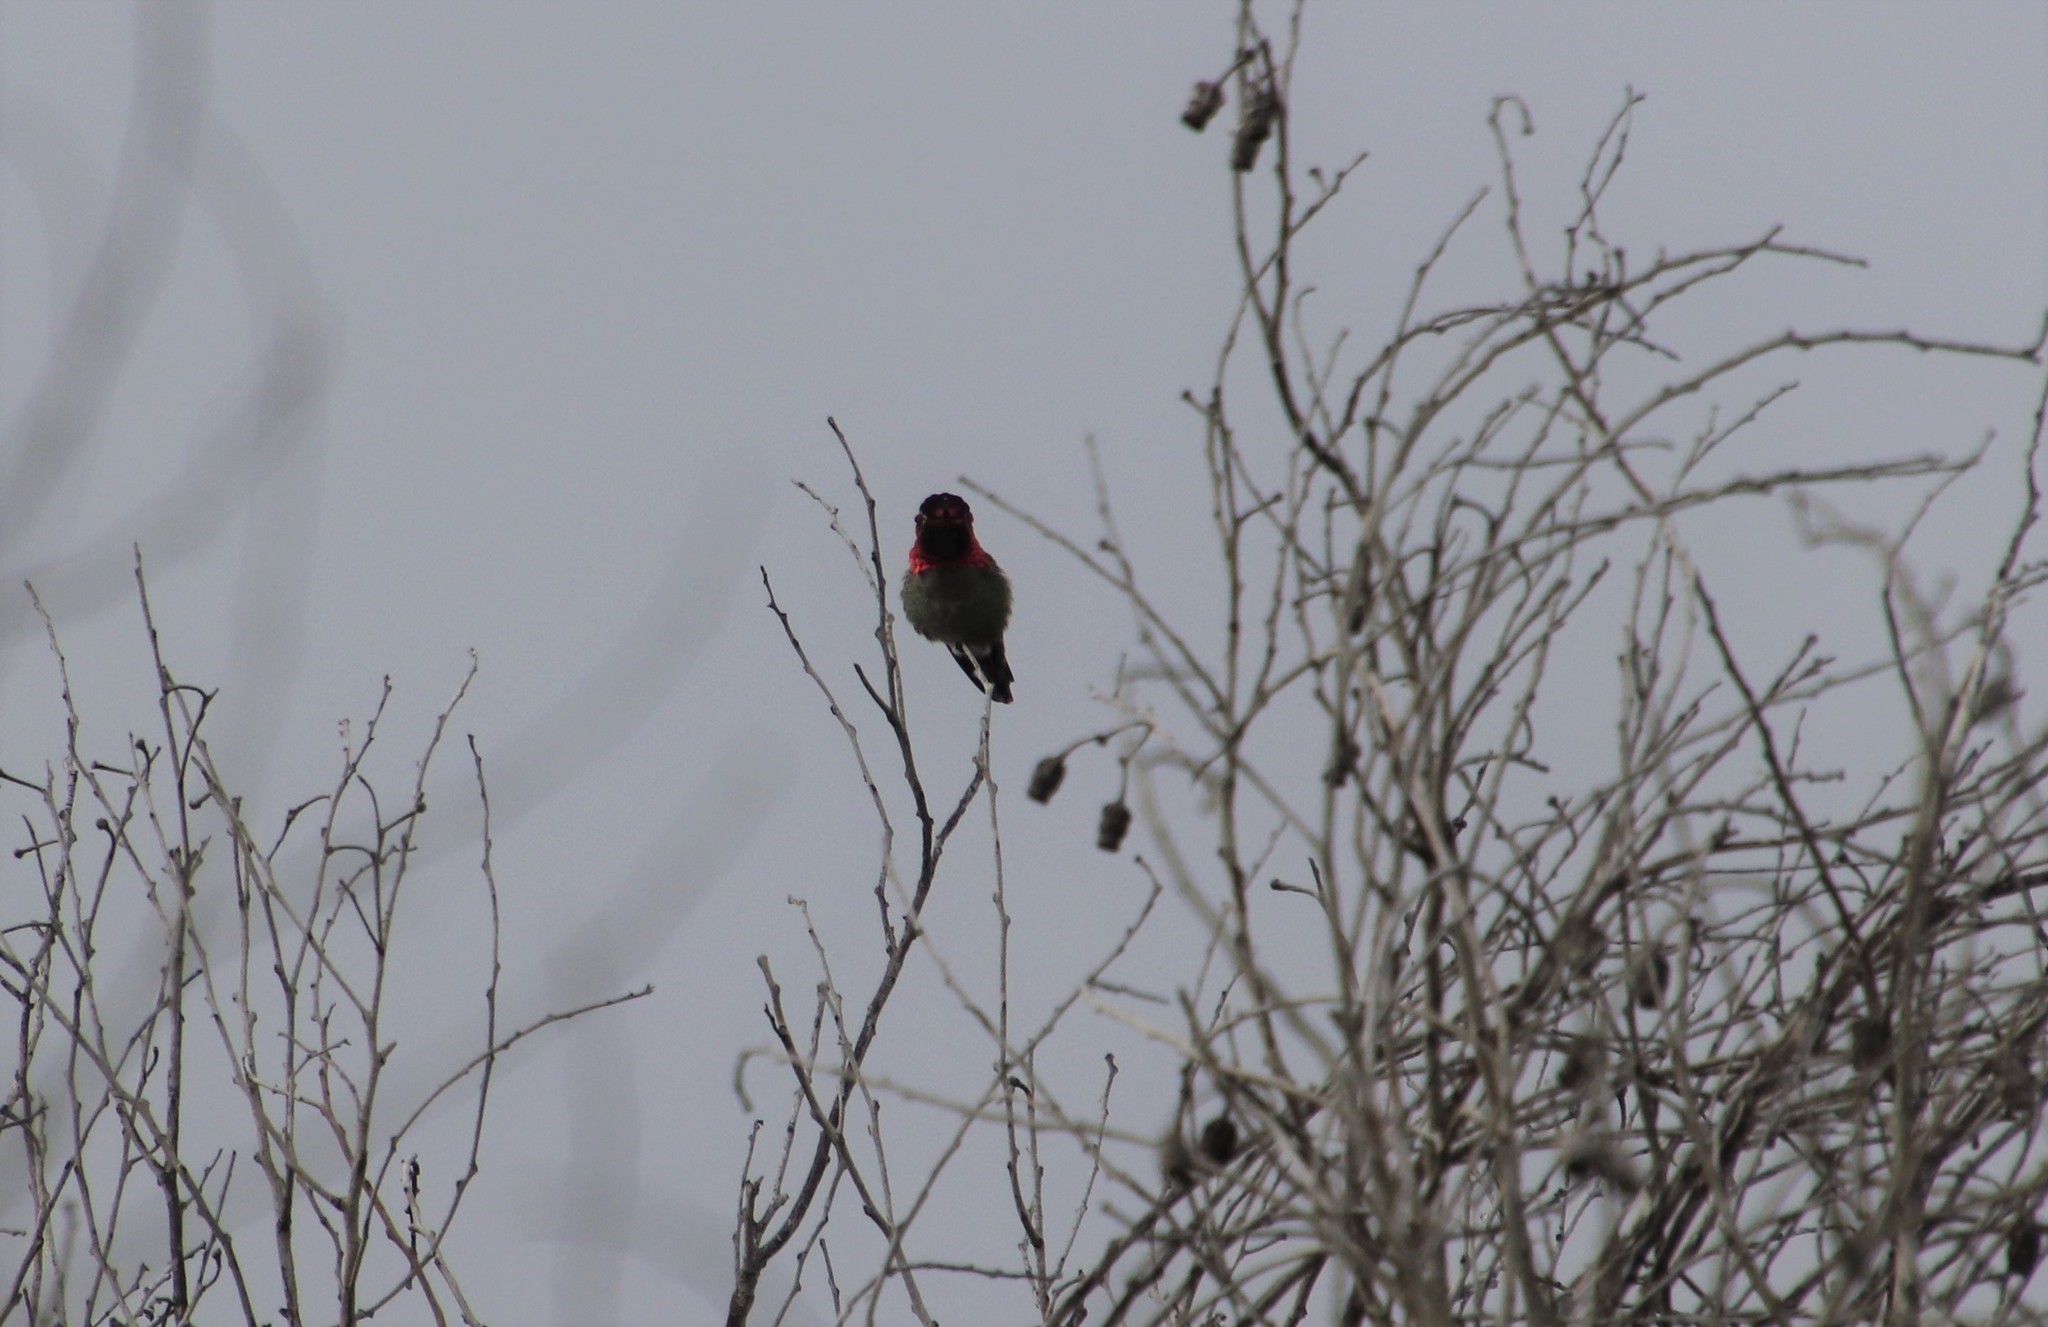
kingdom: Animalia
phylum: Chordata
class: Aves
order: Apodiformes
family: Trochilidae
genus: Calypte
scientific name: Calypte anna
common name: Anna's hummingbird
